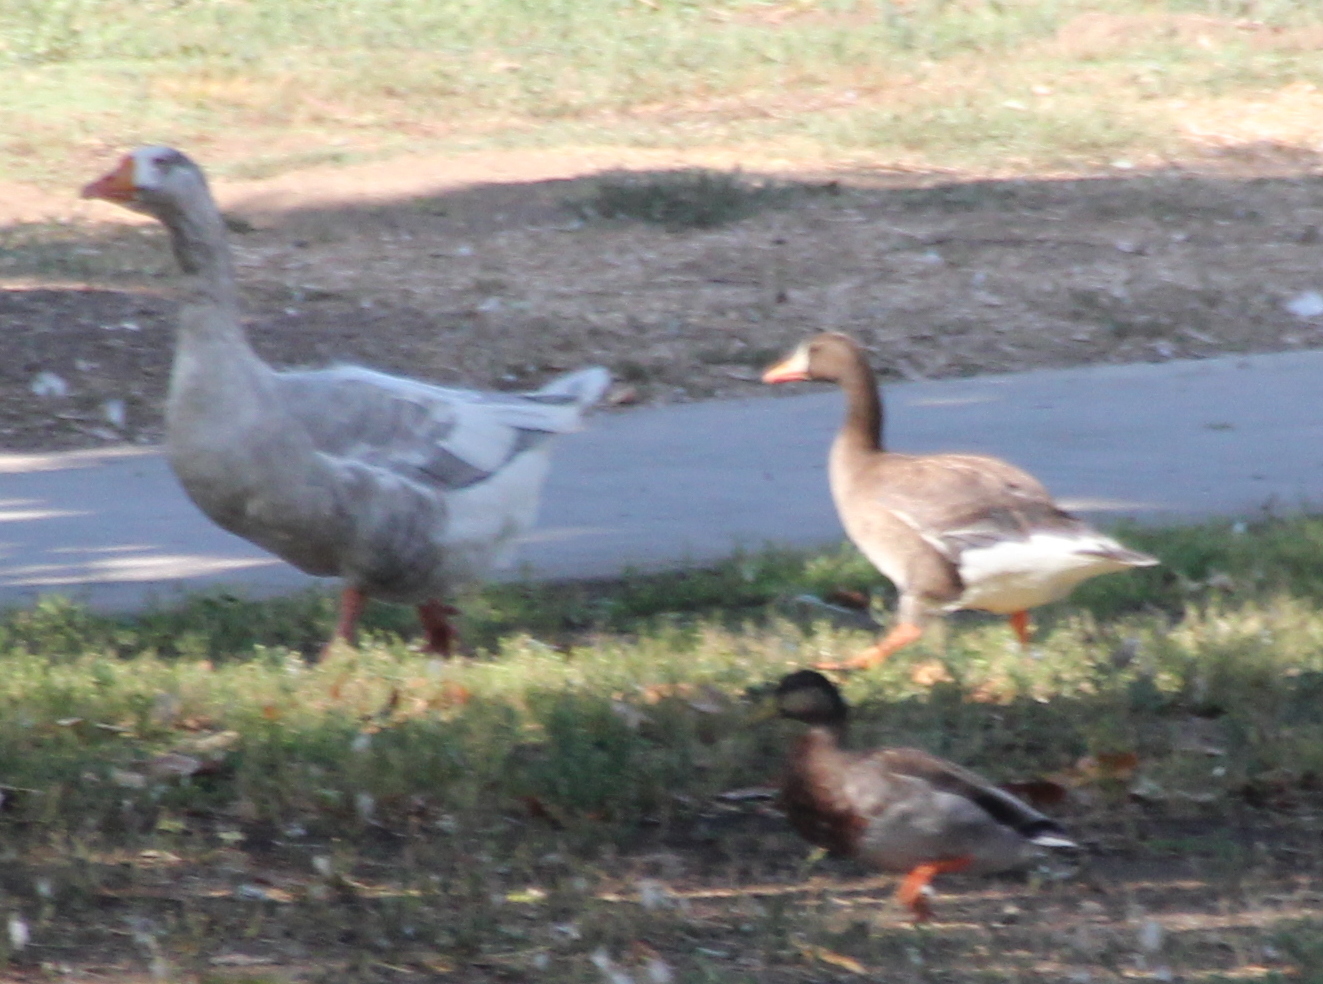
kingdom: Animalia
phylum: Chordata
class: Aves
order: Anseriformes
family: Anatidae
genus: Anser
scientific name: Anser albifrons
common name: Greater white-fronted goose
